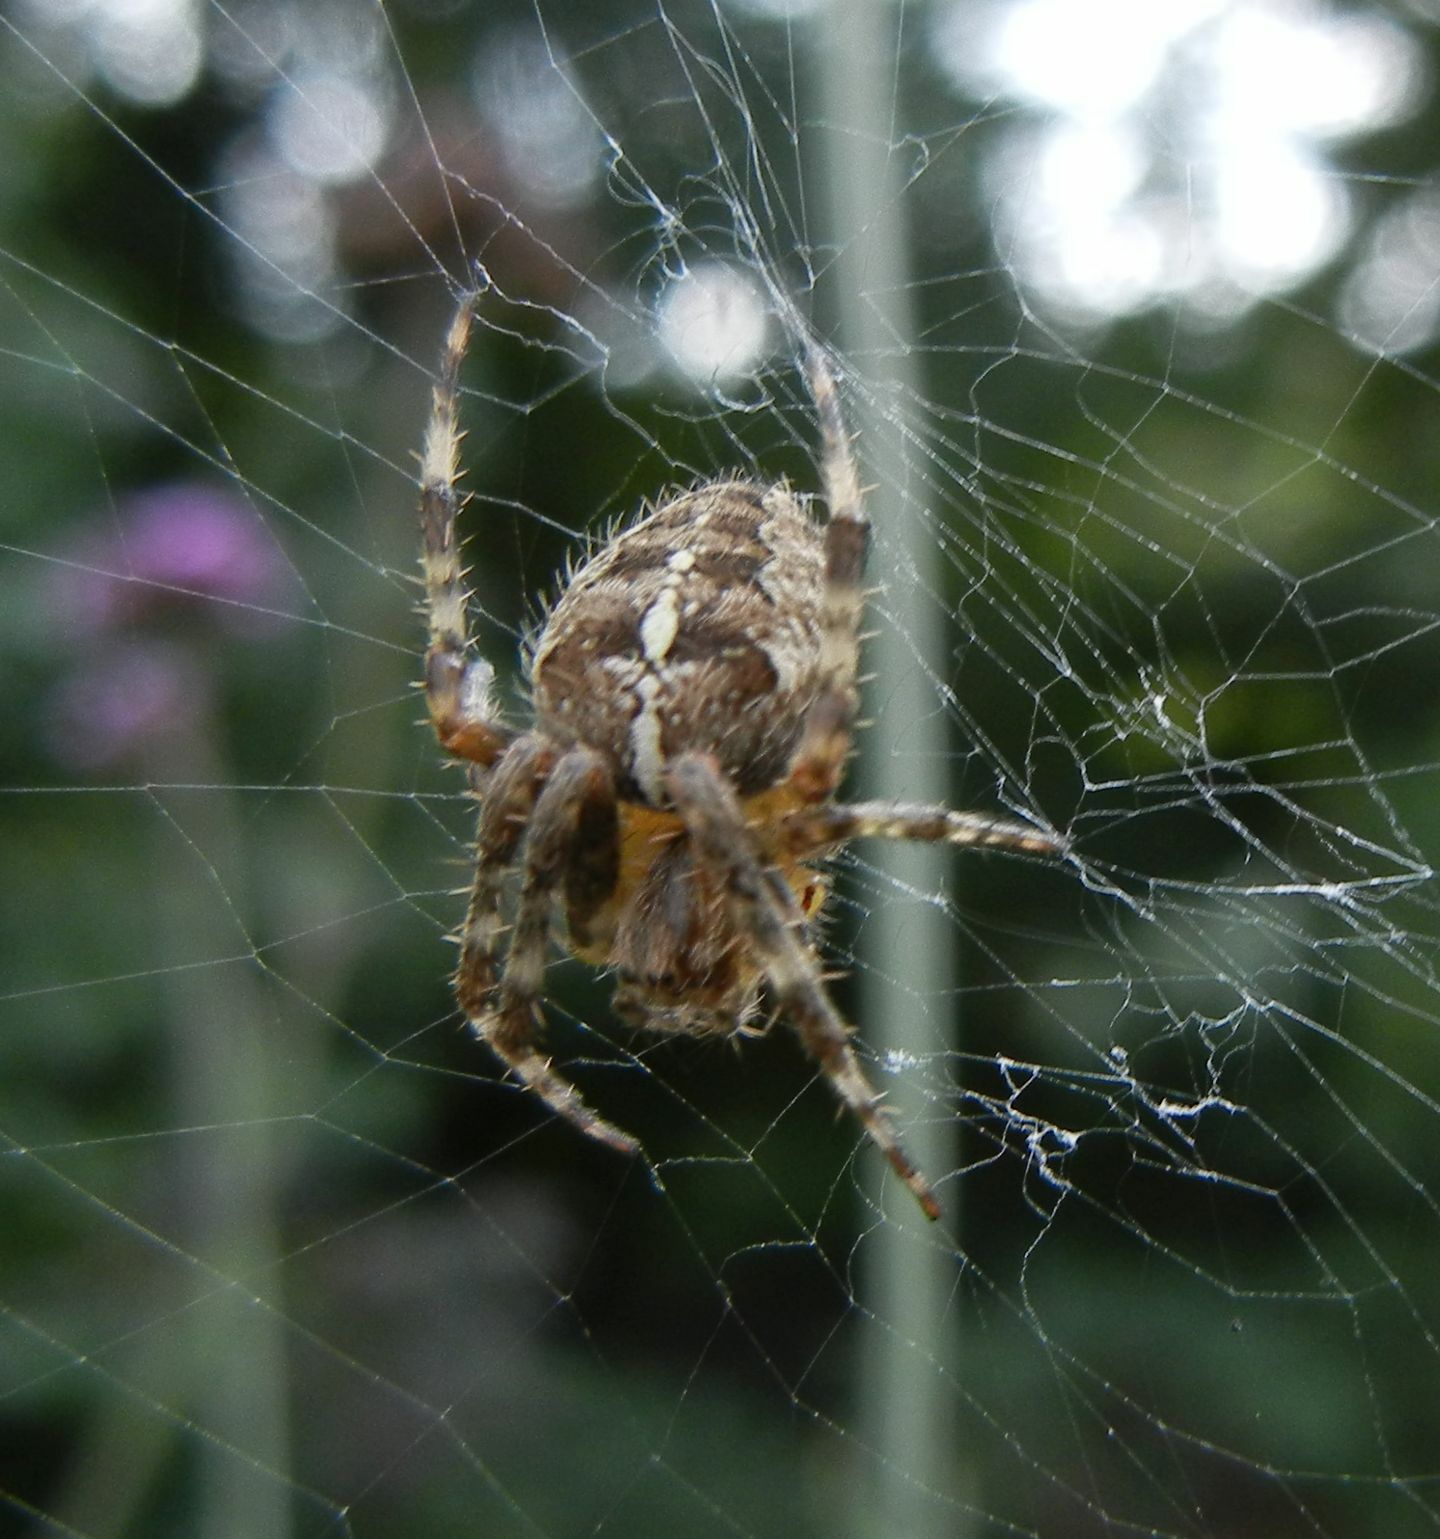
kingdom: Animalia
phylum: Arthropoda
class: Arachnida
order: Araneae
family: Araneidae
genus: Araneus
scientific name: Araneus diadematus
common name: Cross orbweaver
